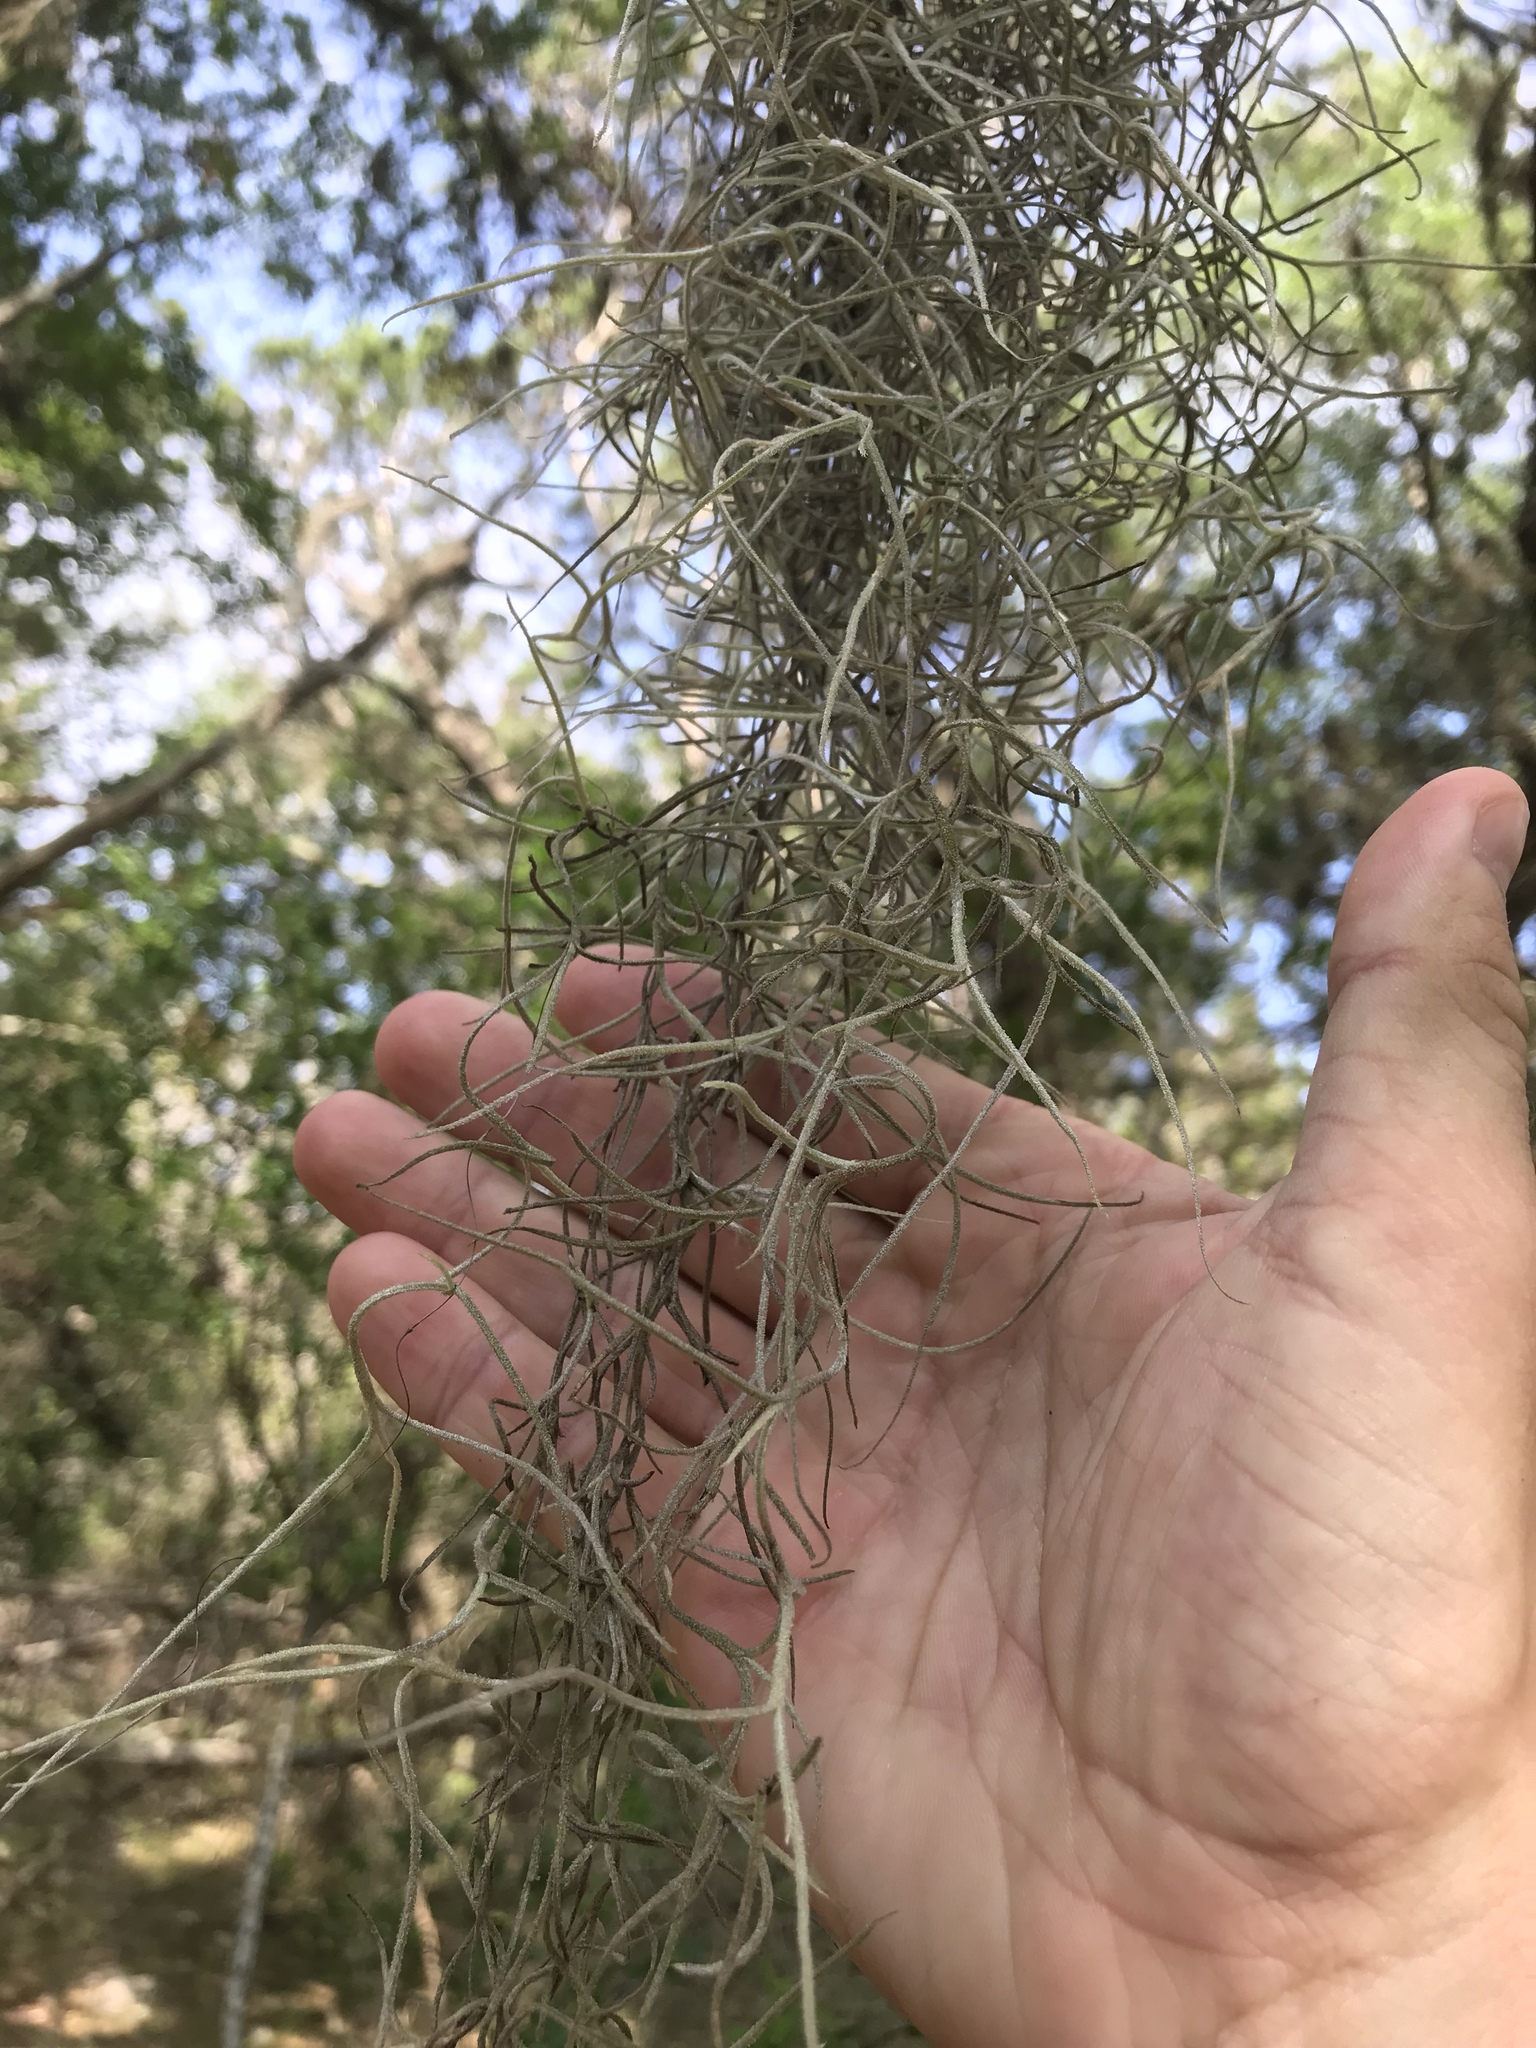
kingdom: Plantae
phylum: Tracheophyta
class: Liliopsida
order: Poales
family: Bromeliaceae
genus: Tillandsia
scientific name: Tillandsia usneoides
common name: Spanish moss
